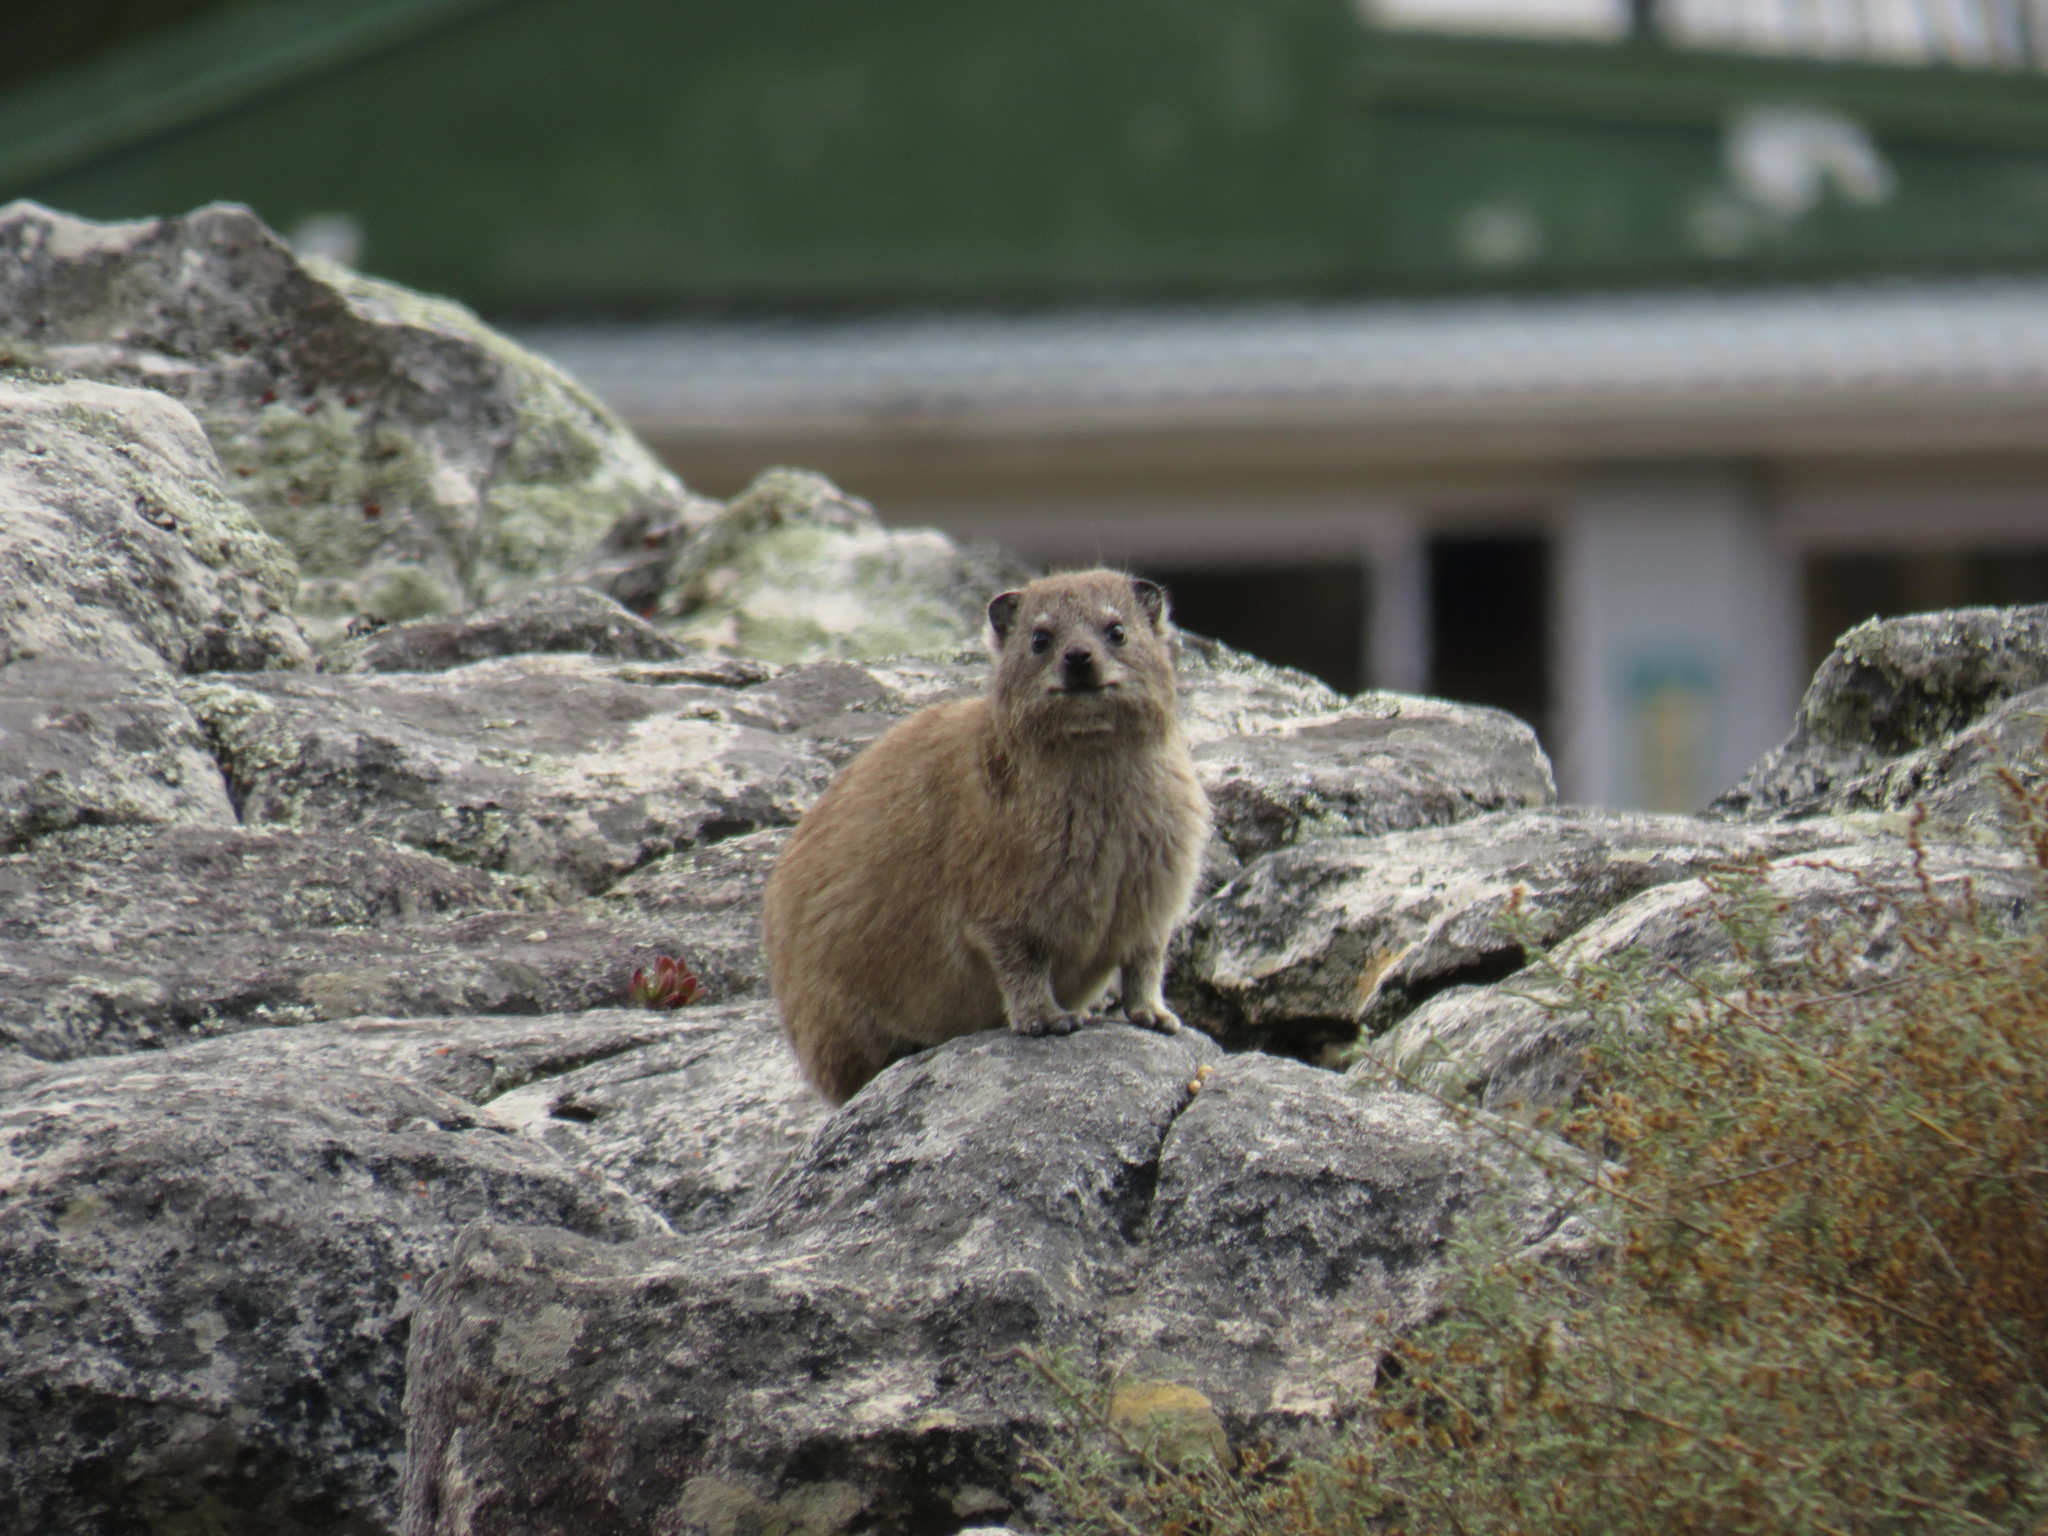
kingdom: Animalia
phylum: Chordata
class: Mammalia
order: Hyracoidea
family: Procaviidae
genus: Procavia
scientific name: Procavia capensis
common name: Rock hyrax
